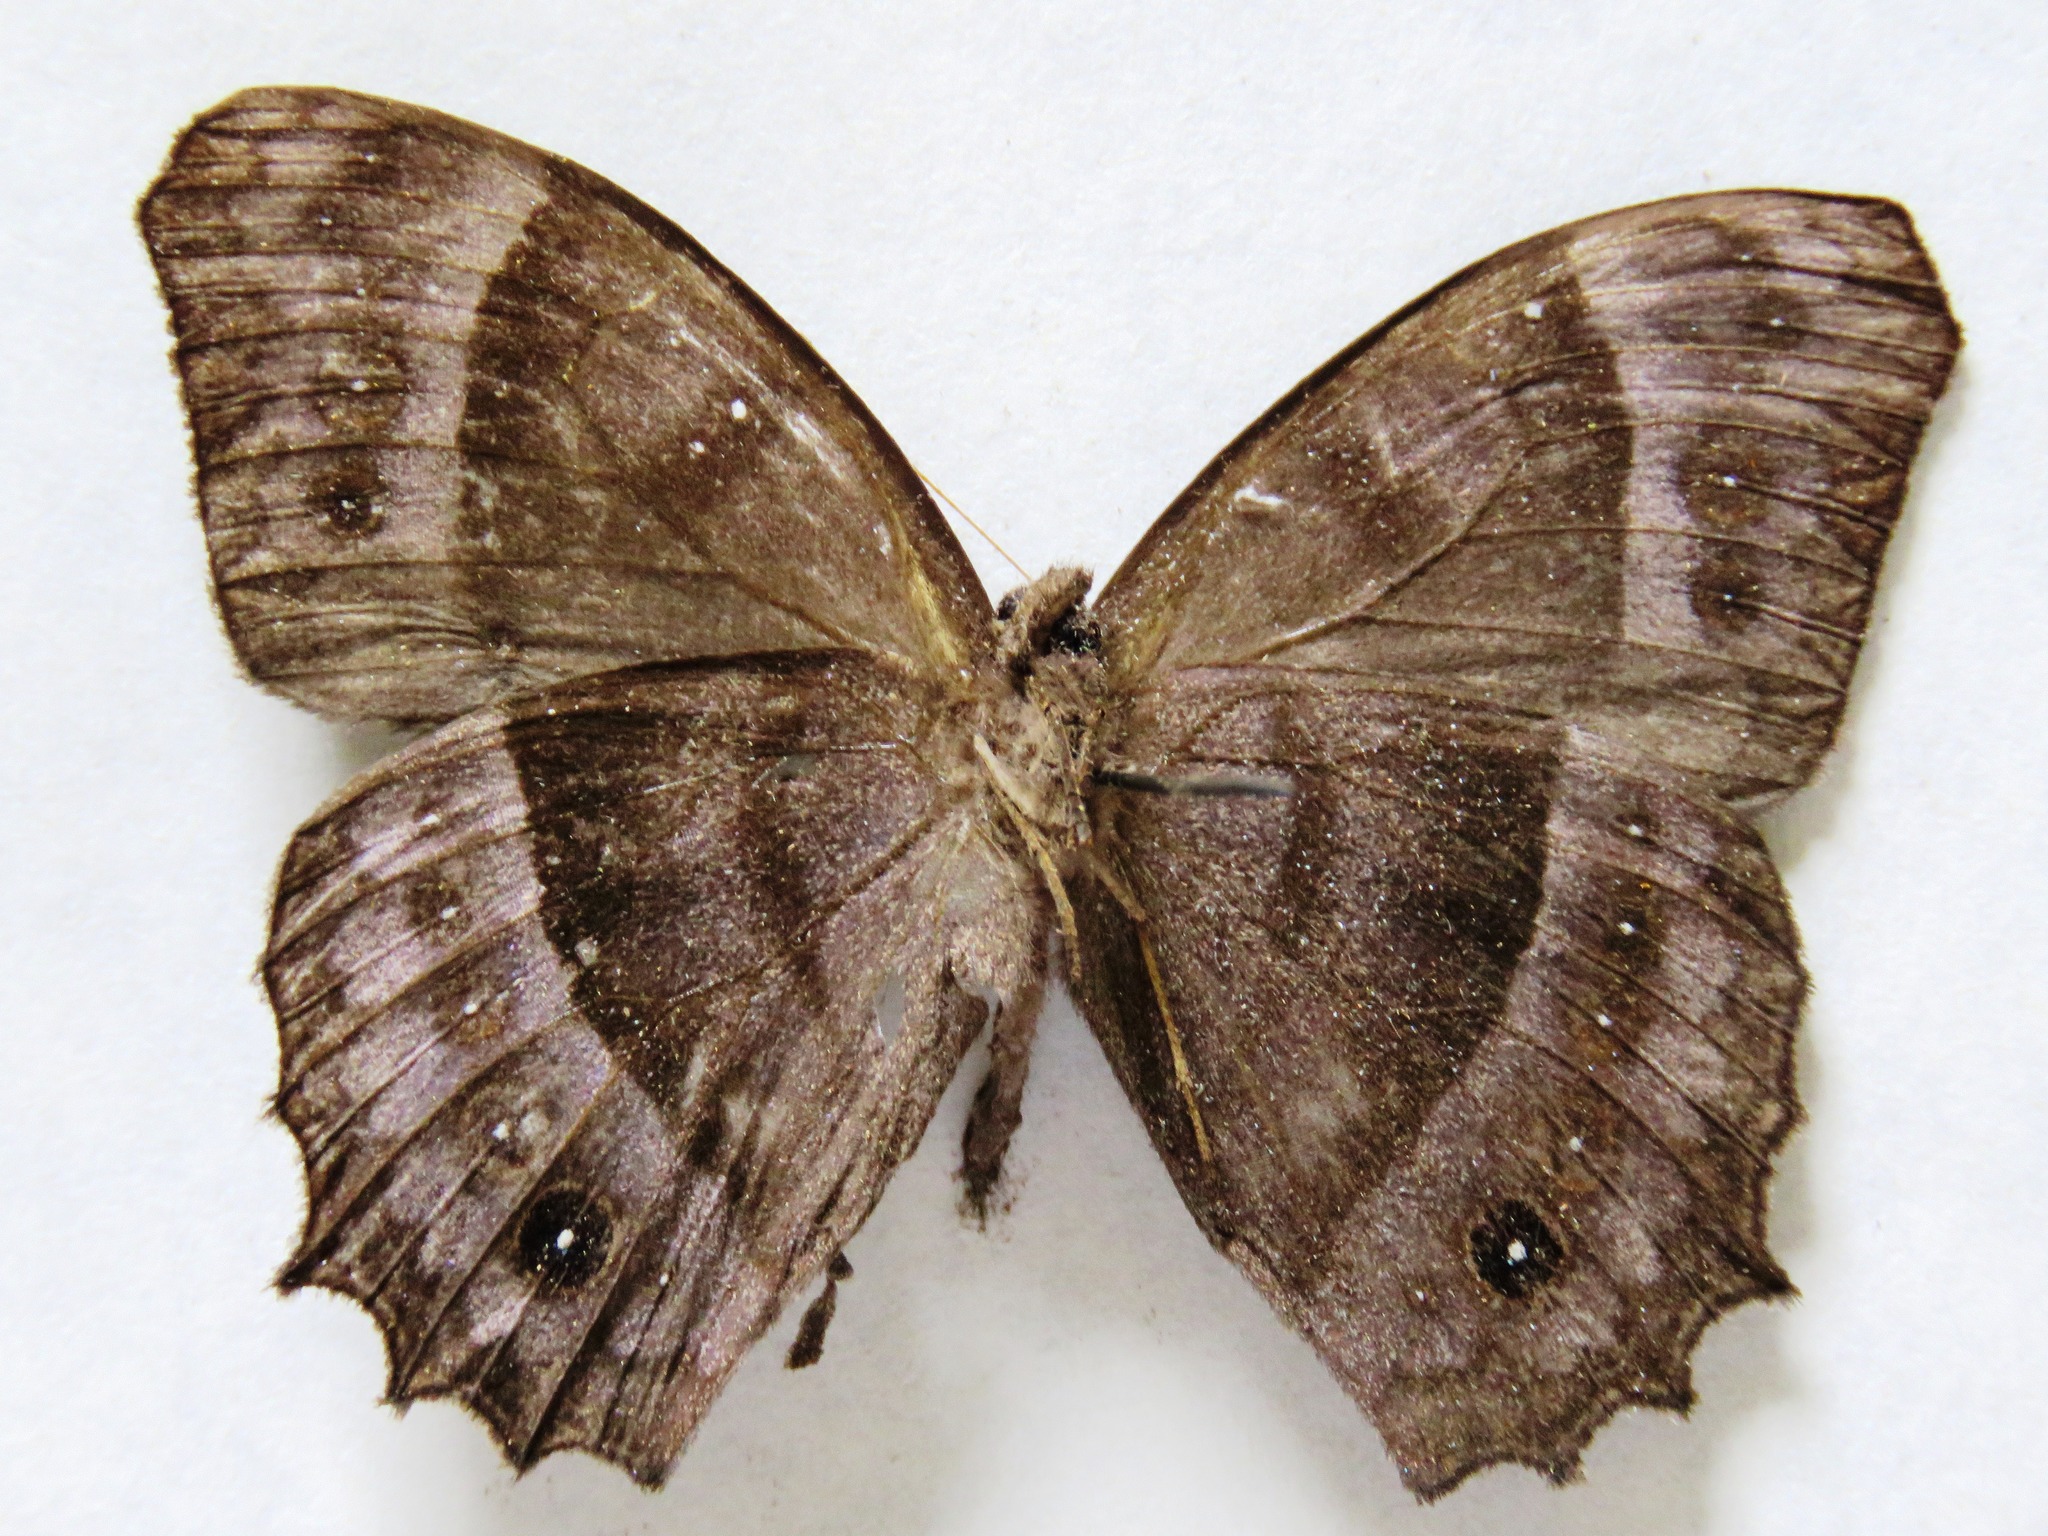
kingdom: Animalia
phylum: Arthropoda
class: Insecta
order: Lepidoptera
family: Nymphalidae
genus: Taygetis
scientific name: Taygetis inconspicua
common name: Inconspicuous satyr
